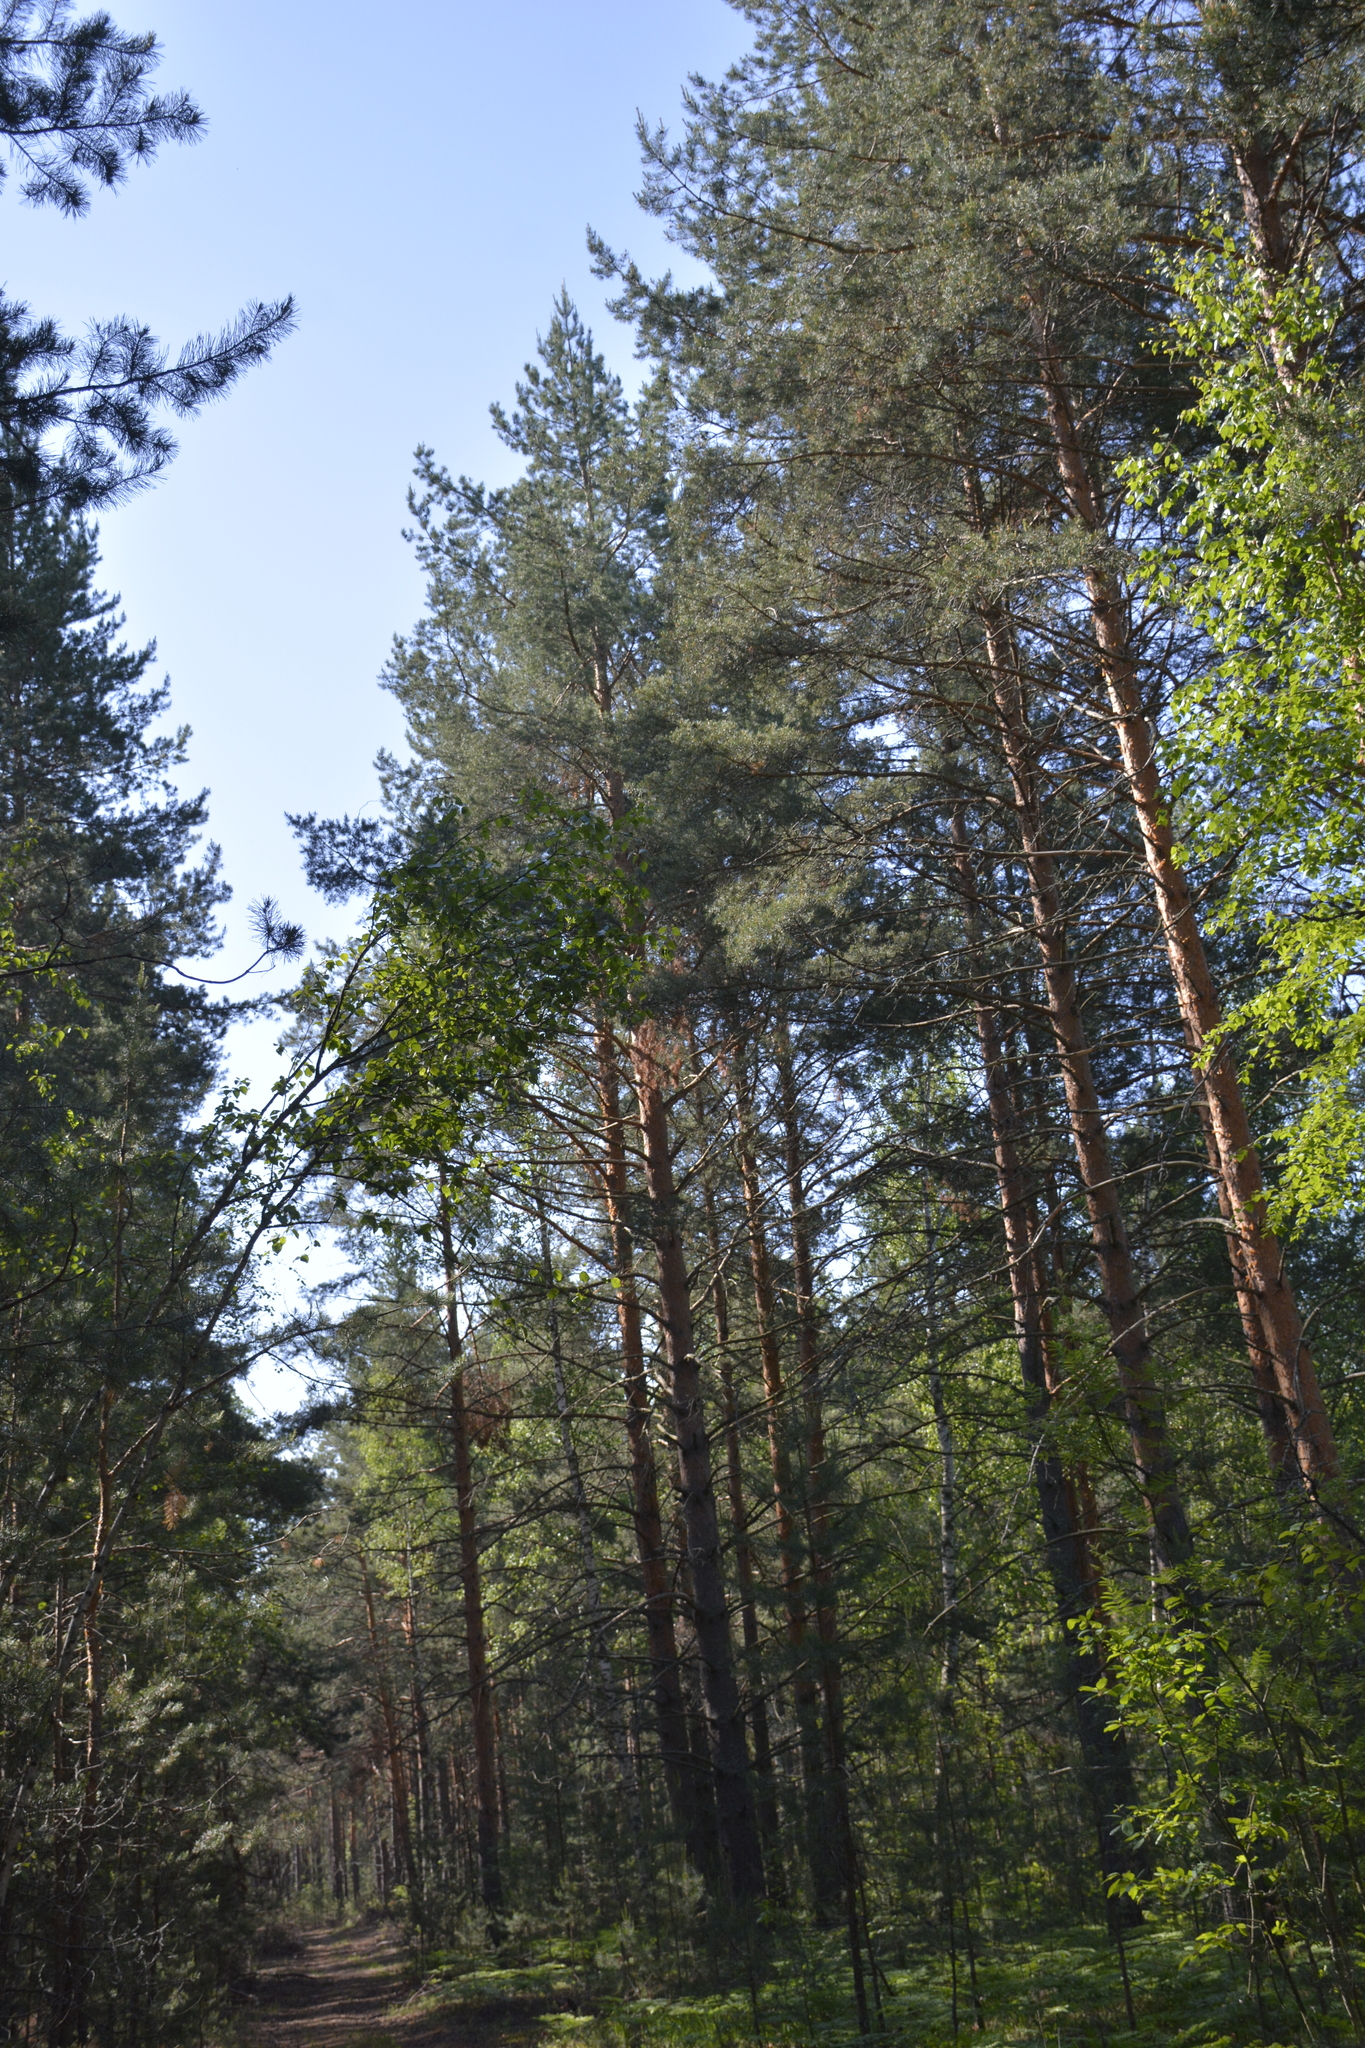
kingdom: Plantae
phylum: Tracheophyta
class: Pinopsida
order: Pinales
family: Pinaceae
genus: Pinus
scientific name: Pinus sylvestris
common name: Scots pine
